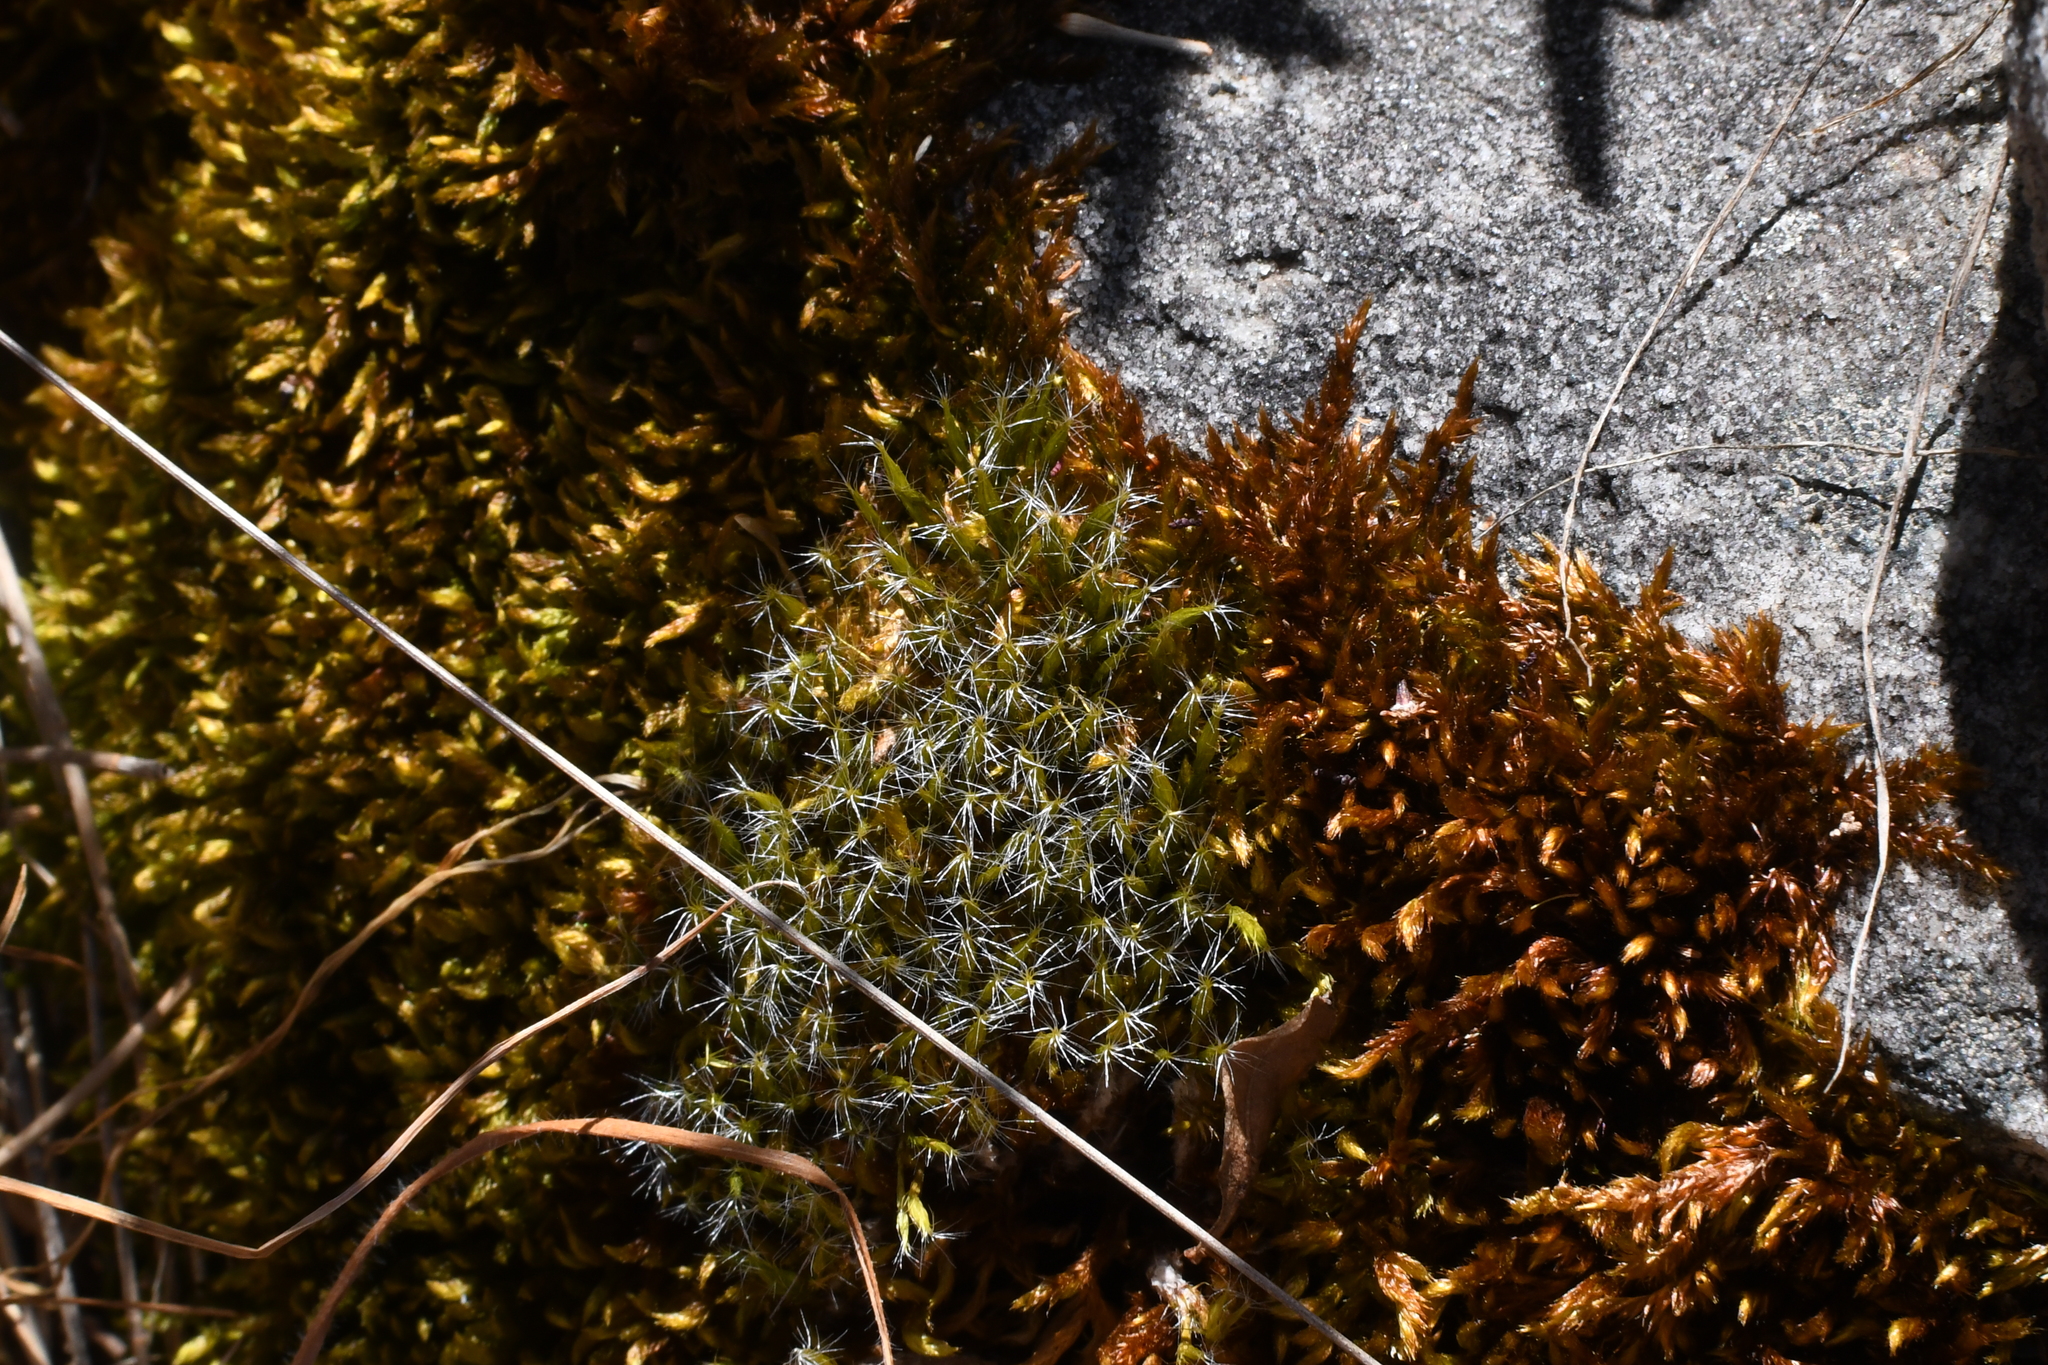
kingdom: Plantae
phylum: Bryophyta
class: Bryopsida
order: Dicranales
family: Leucobryaceae
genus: Campylopus
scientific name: Campylopus introflexus
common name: Heath star moss
